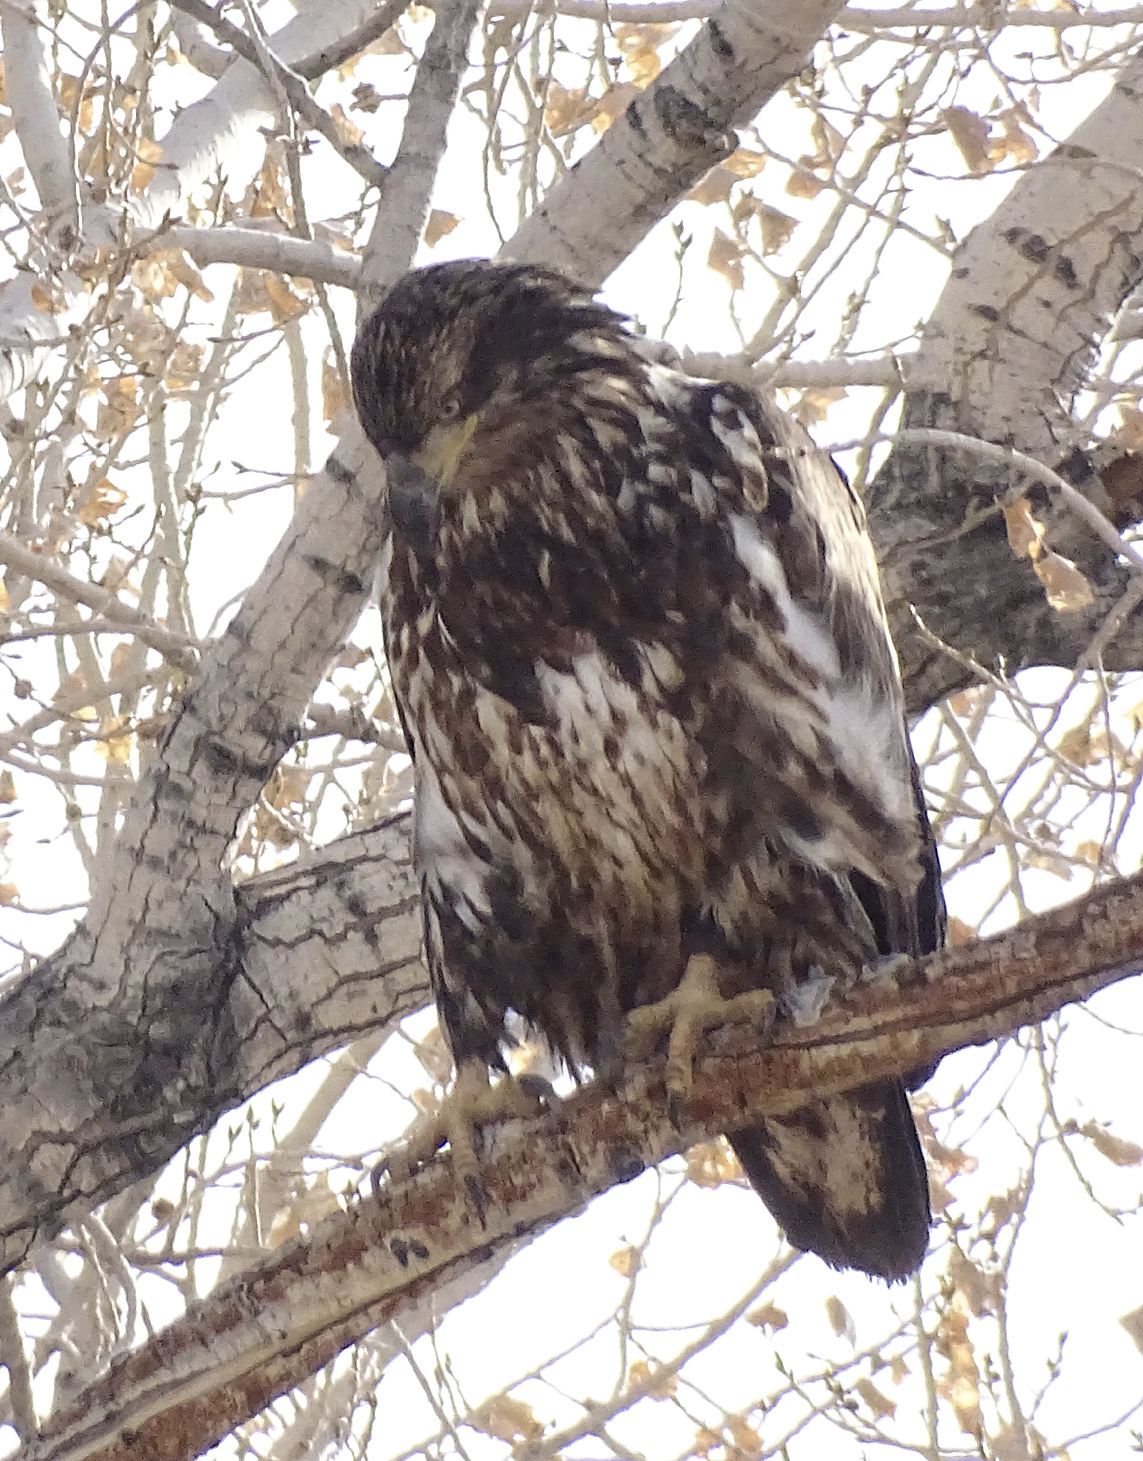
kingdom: Animalia
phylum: Chordata
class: Aves
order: Accipitriformes
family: Accipitridae
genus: Haliaeetus
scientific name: Haliaeetus leucocephalus
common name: Bald eagle
